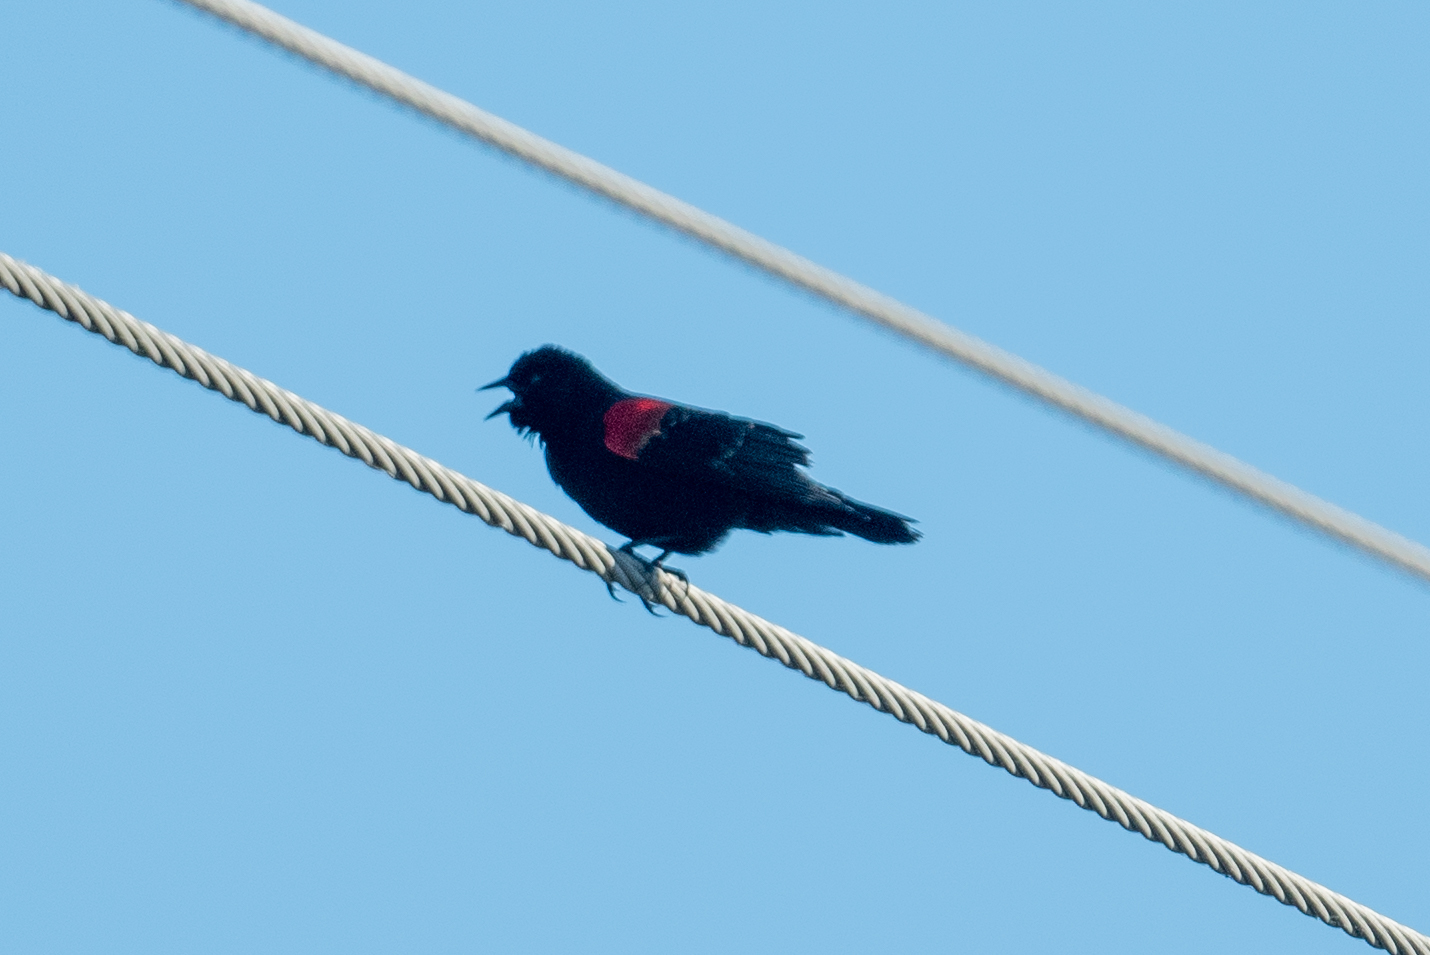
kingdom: Animalia
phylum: Chordata
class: Aves
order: Passeriformes
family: Icteridae
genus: Agelaius
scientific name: Agelaius phoeniceus
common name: Red-winged blackbird
